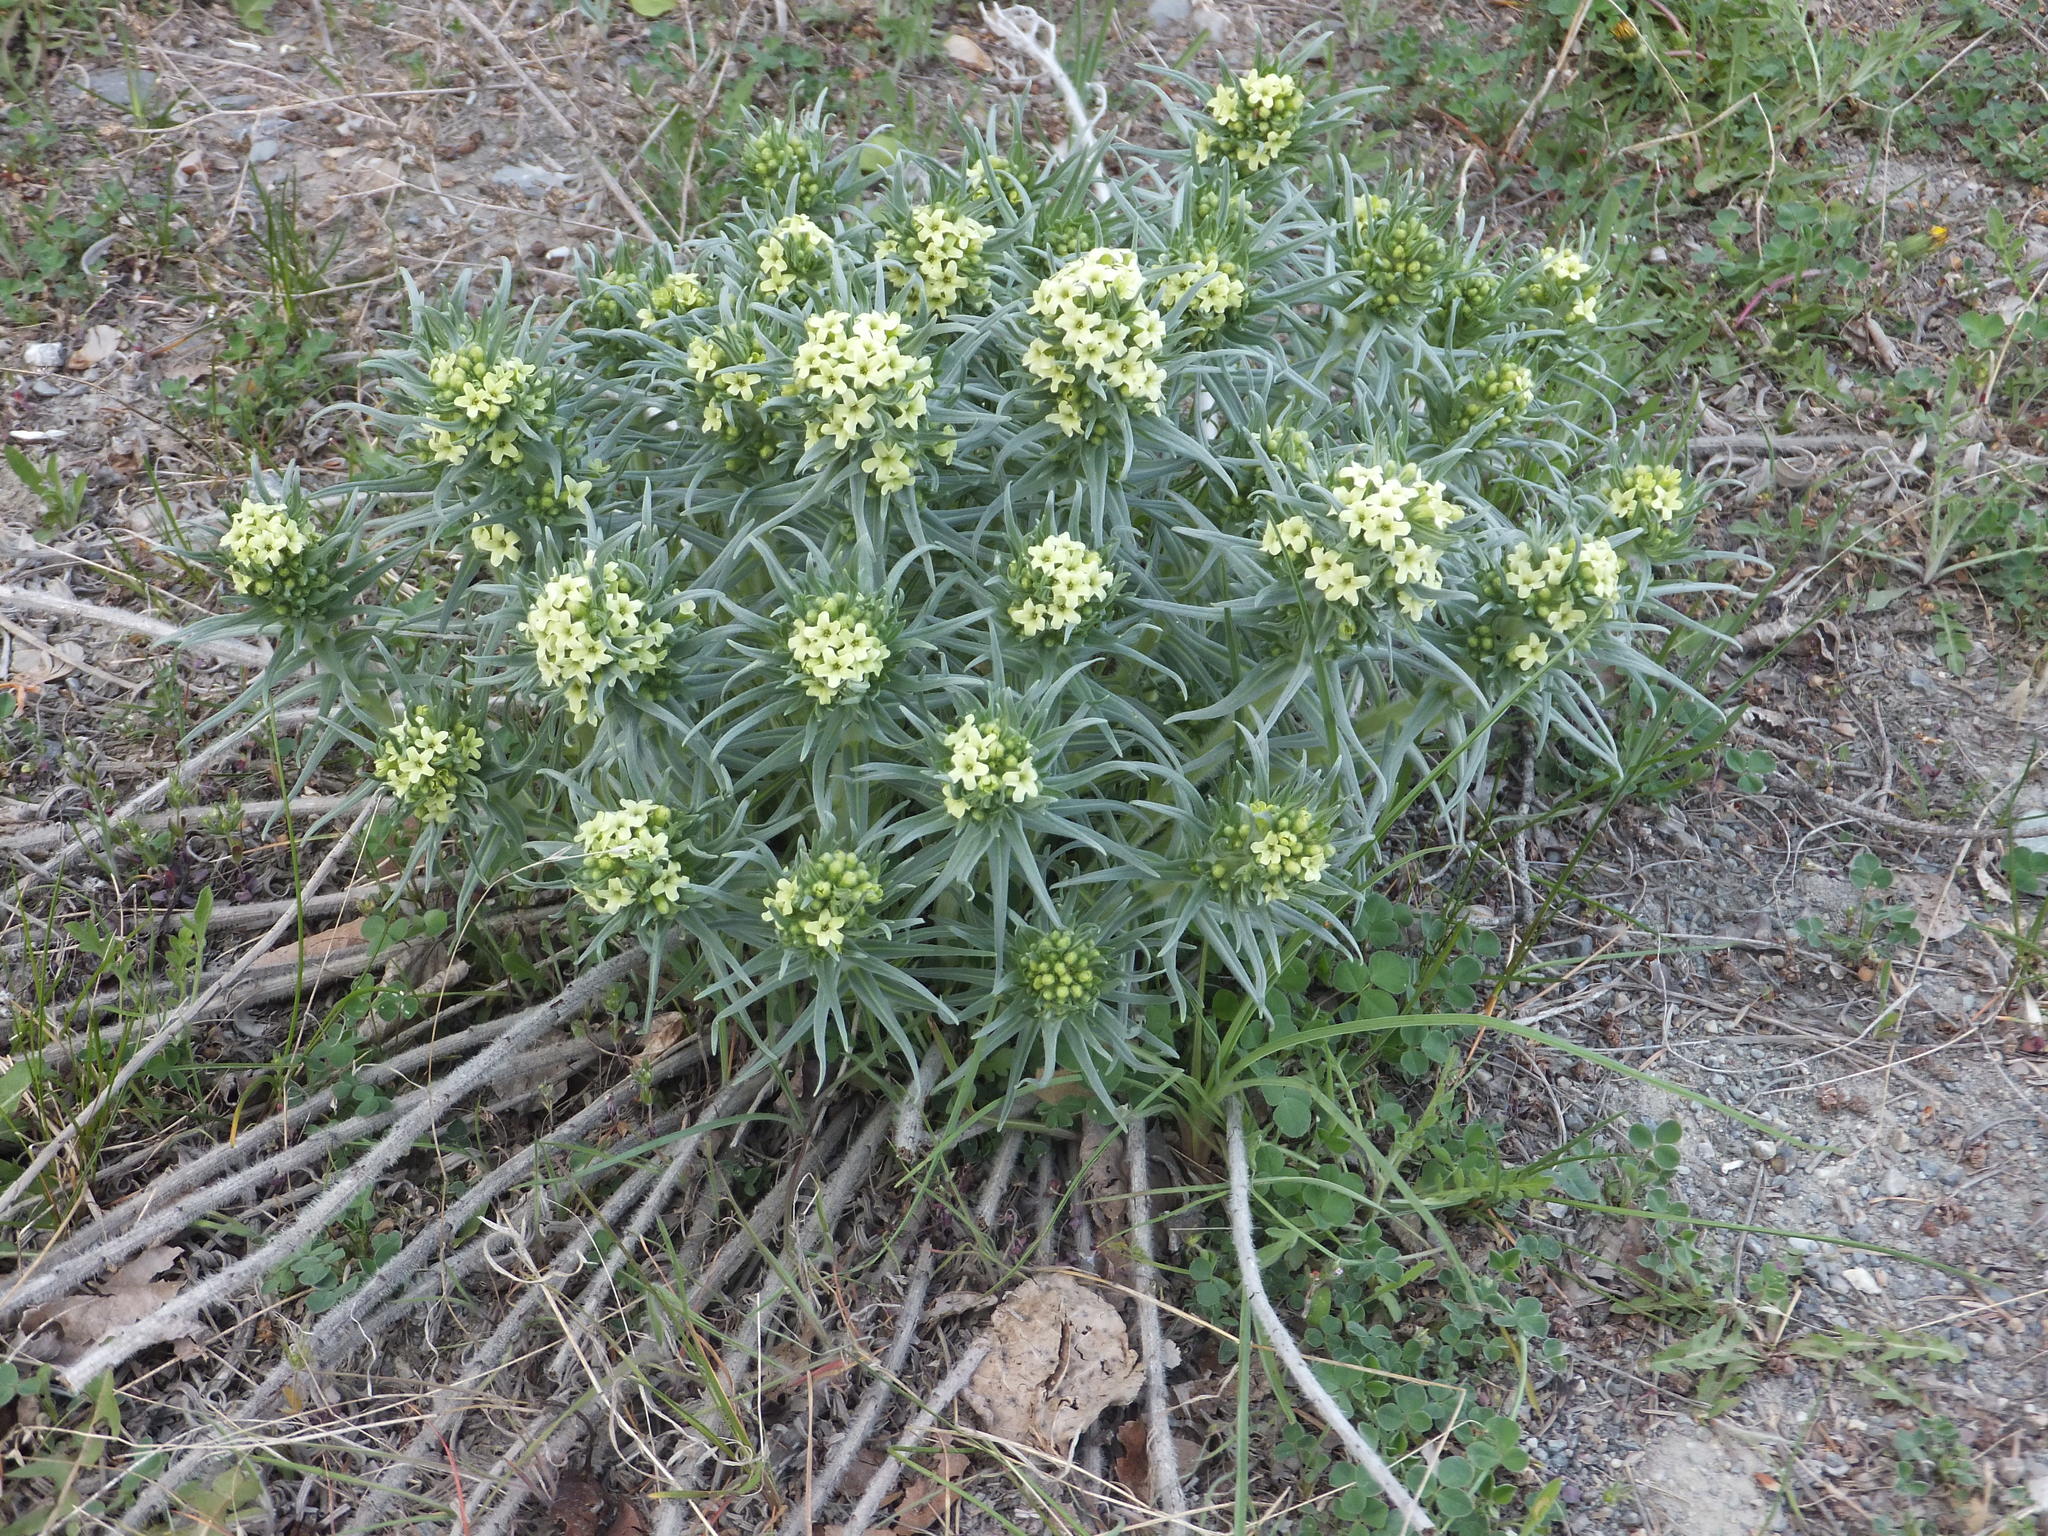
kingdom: Plantae
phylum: Tracheophyta
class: Magnoliopsida
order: Boraginales
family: Boraginaceae
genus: Lithospermum
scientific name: Lithospermum ruderale
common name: Western gromwell
